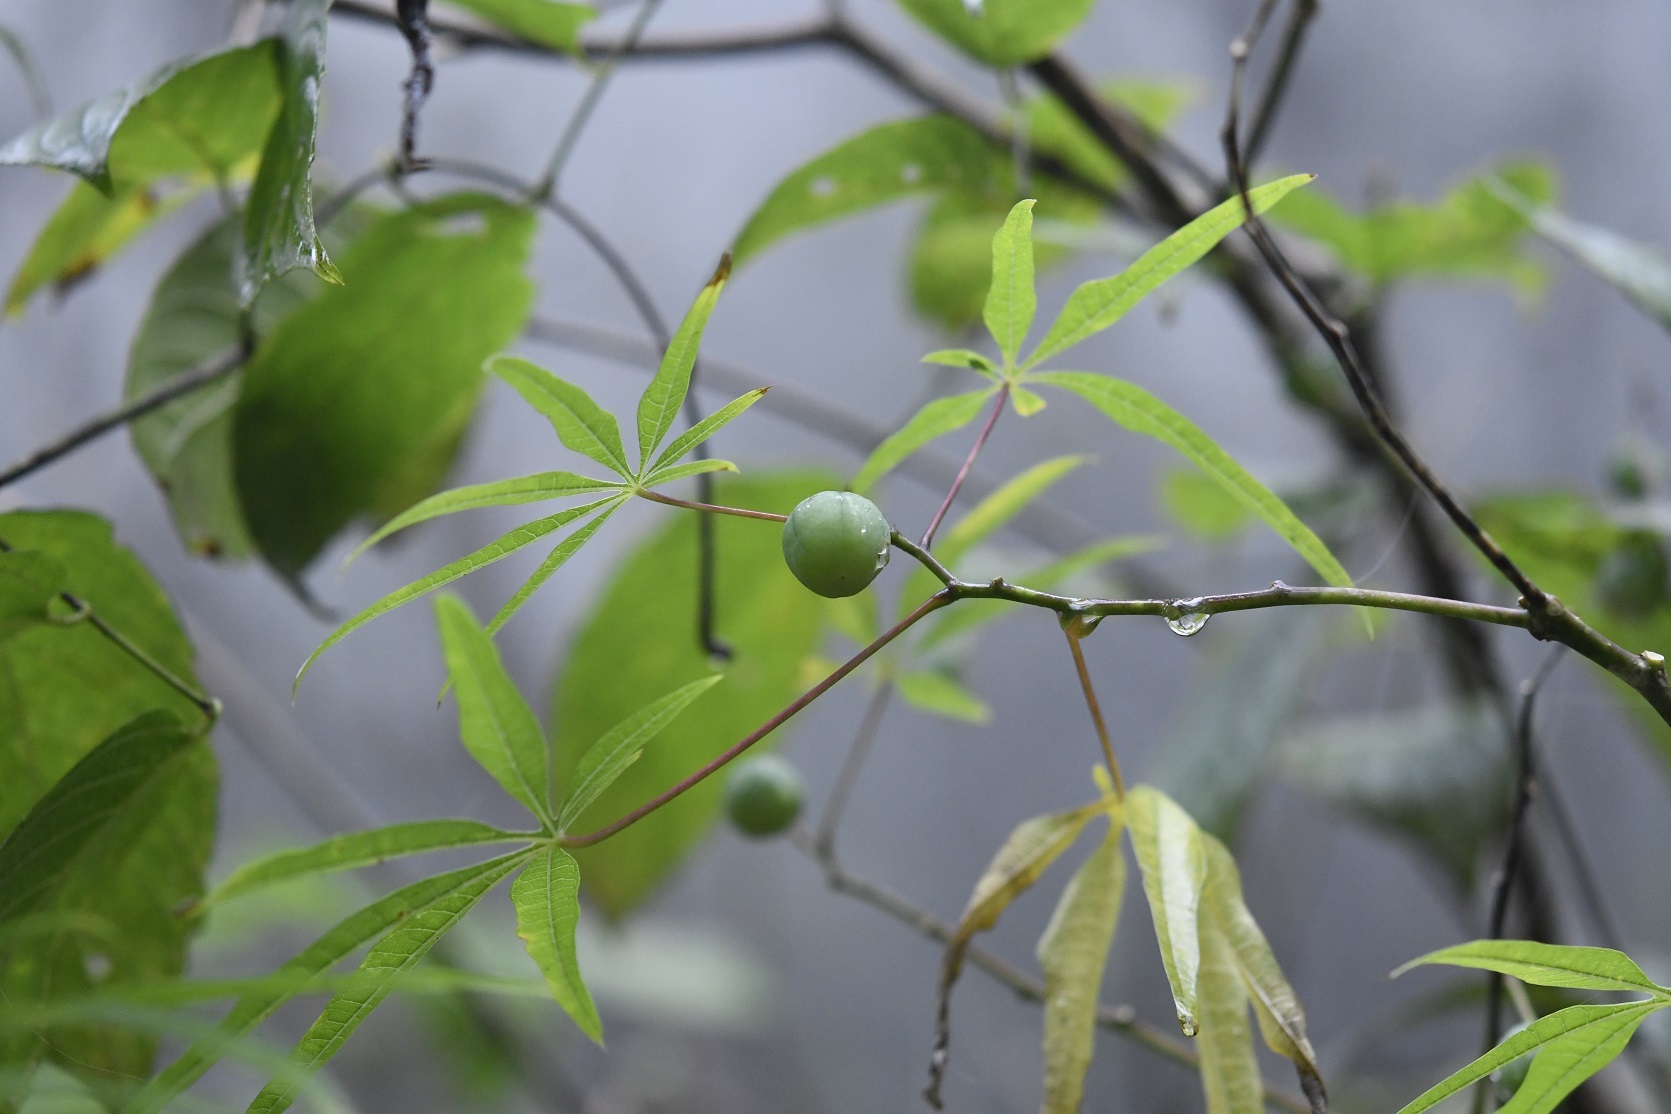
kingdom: Plantae
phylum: Tracheophyta
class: Magnoliopsida
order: Malpighiales
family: Euphorbiaceae
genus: Manihot
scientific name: Manihot rhomboidea
